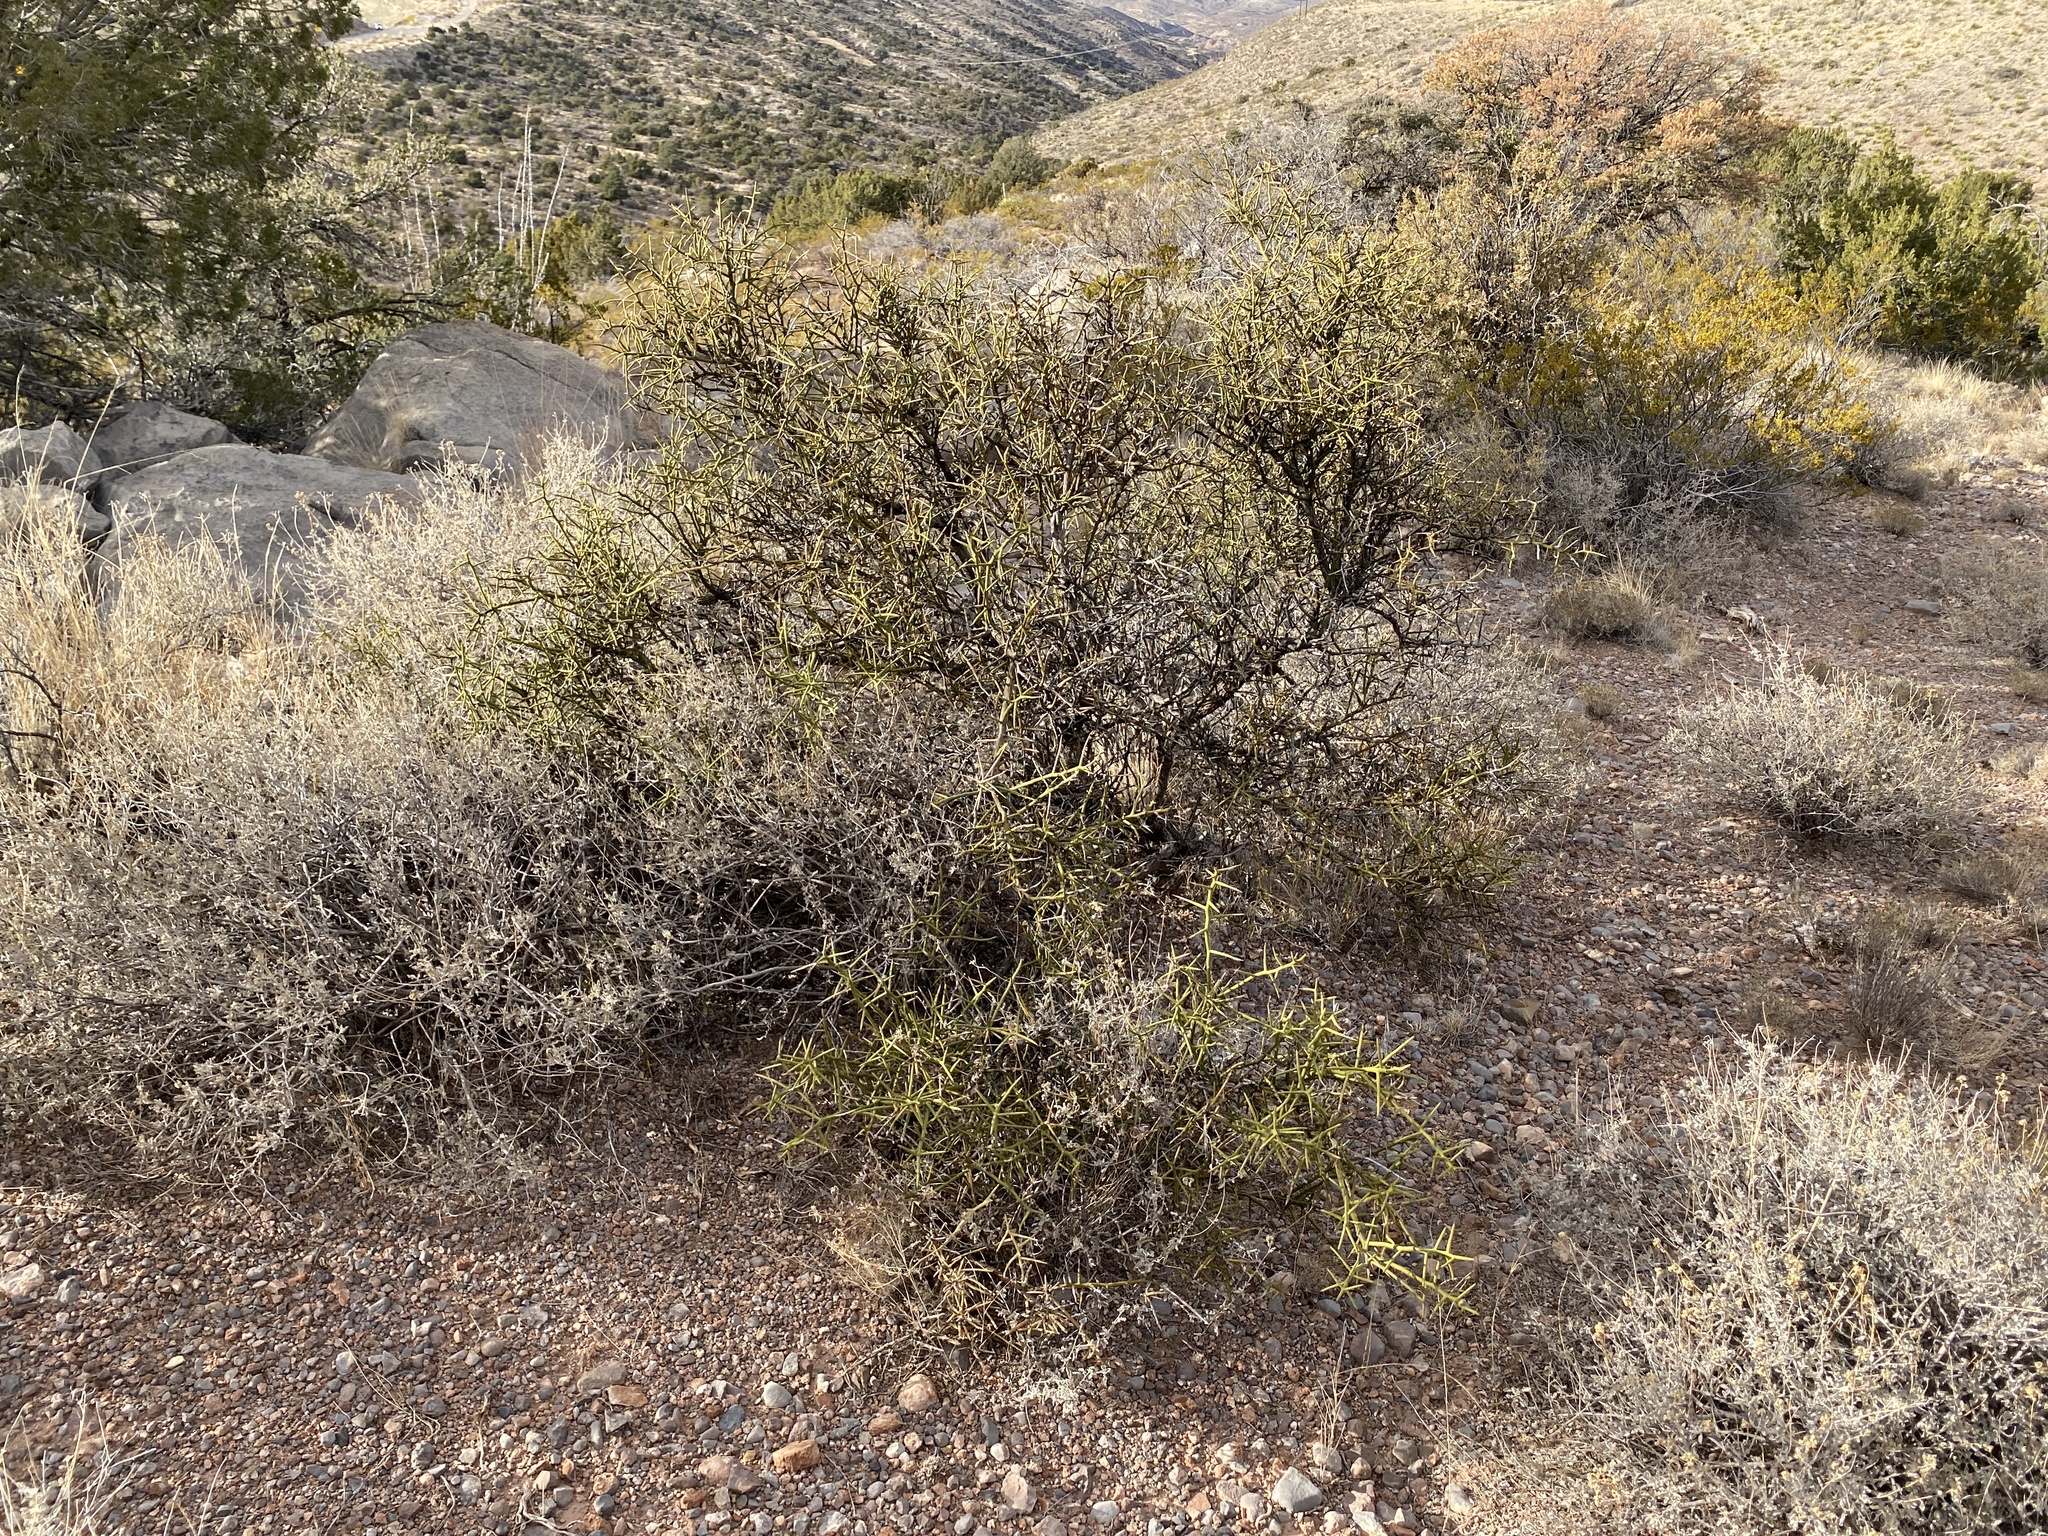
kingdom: Plantae
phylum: Tracheophyta
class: Magnoliopsida
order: Brassicales
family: Koeberliniaceae
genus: Koeberlinia
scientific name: Koeberlinia spinosa
